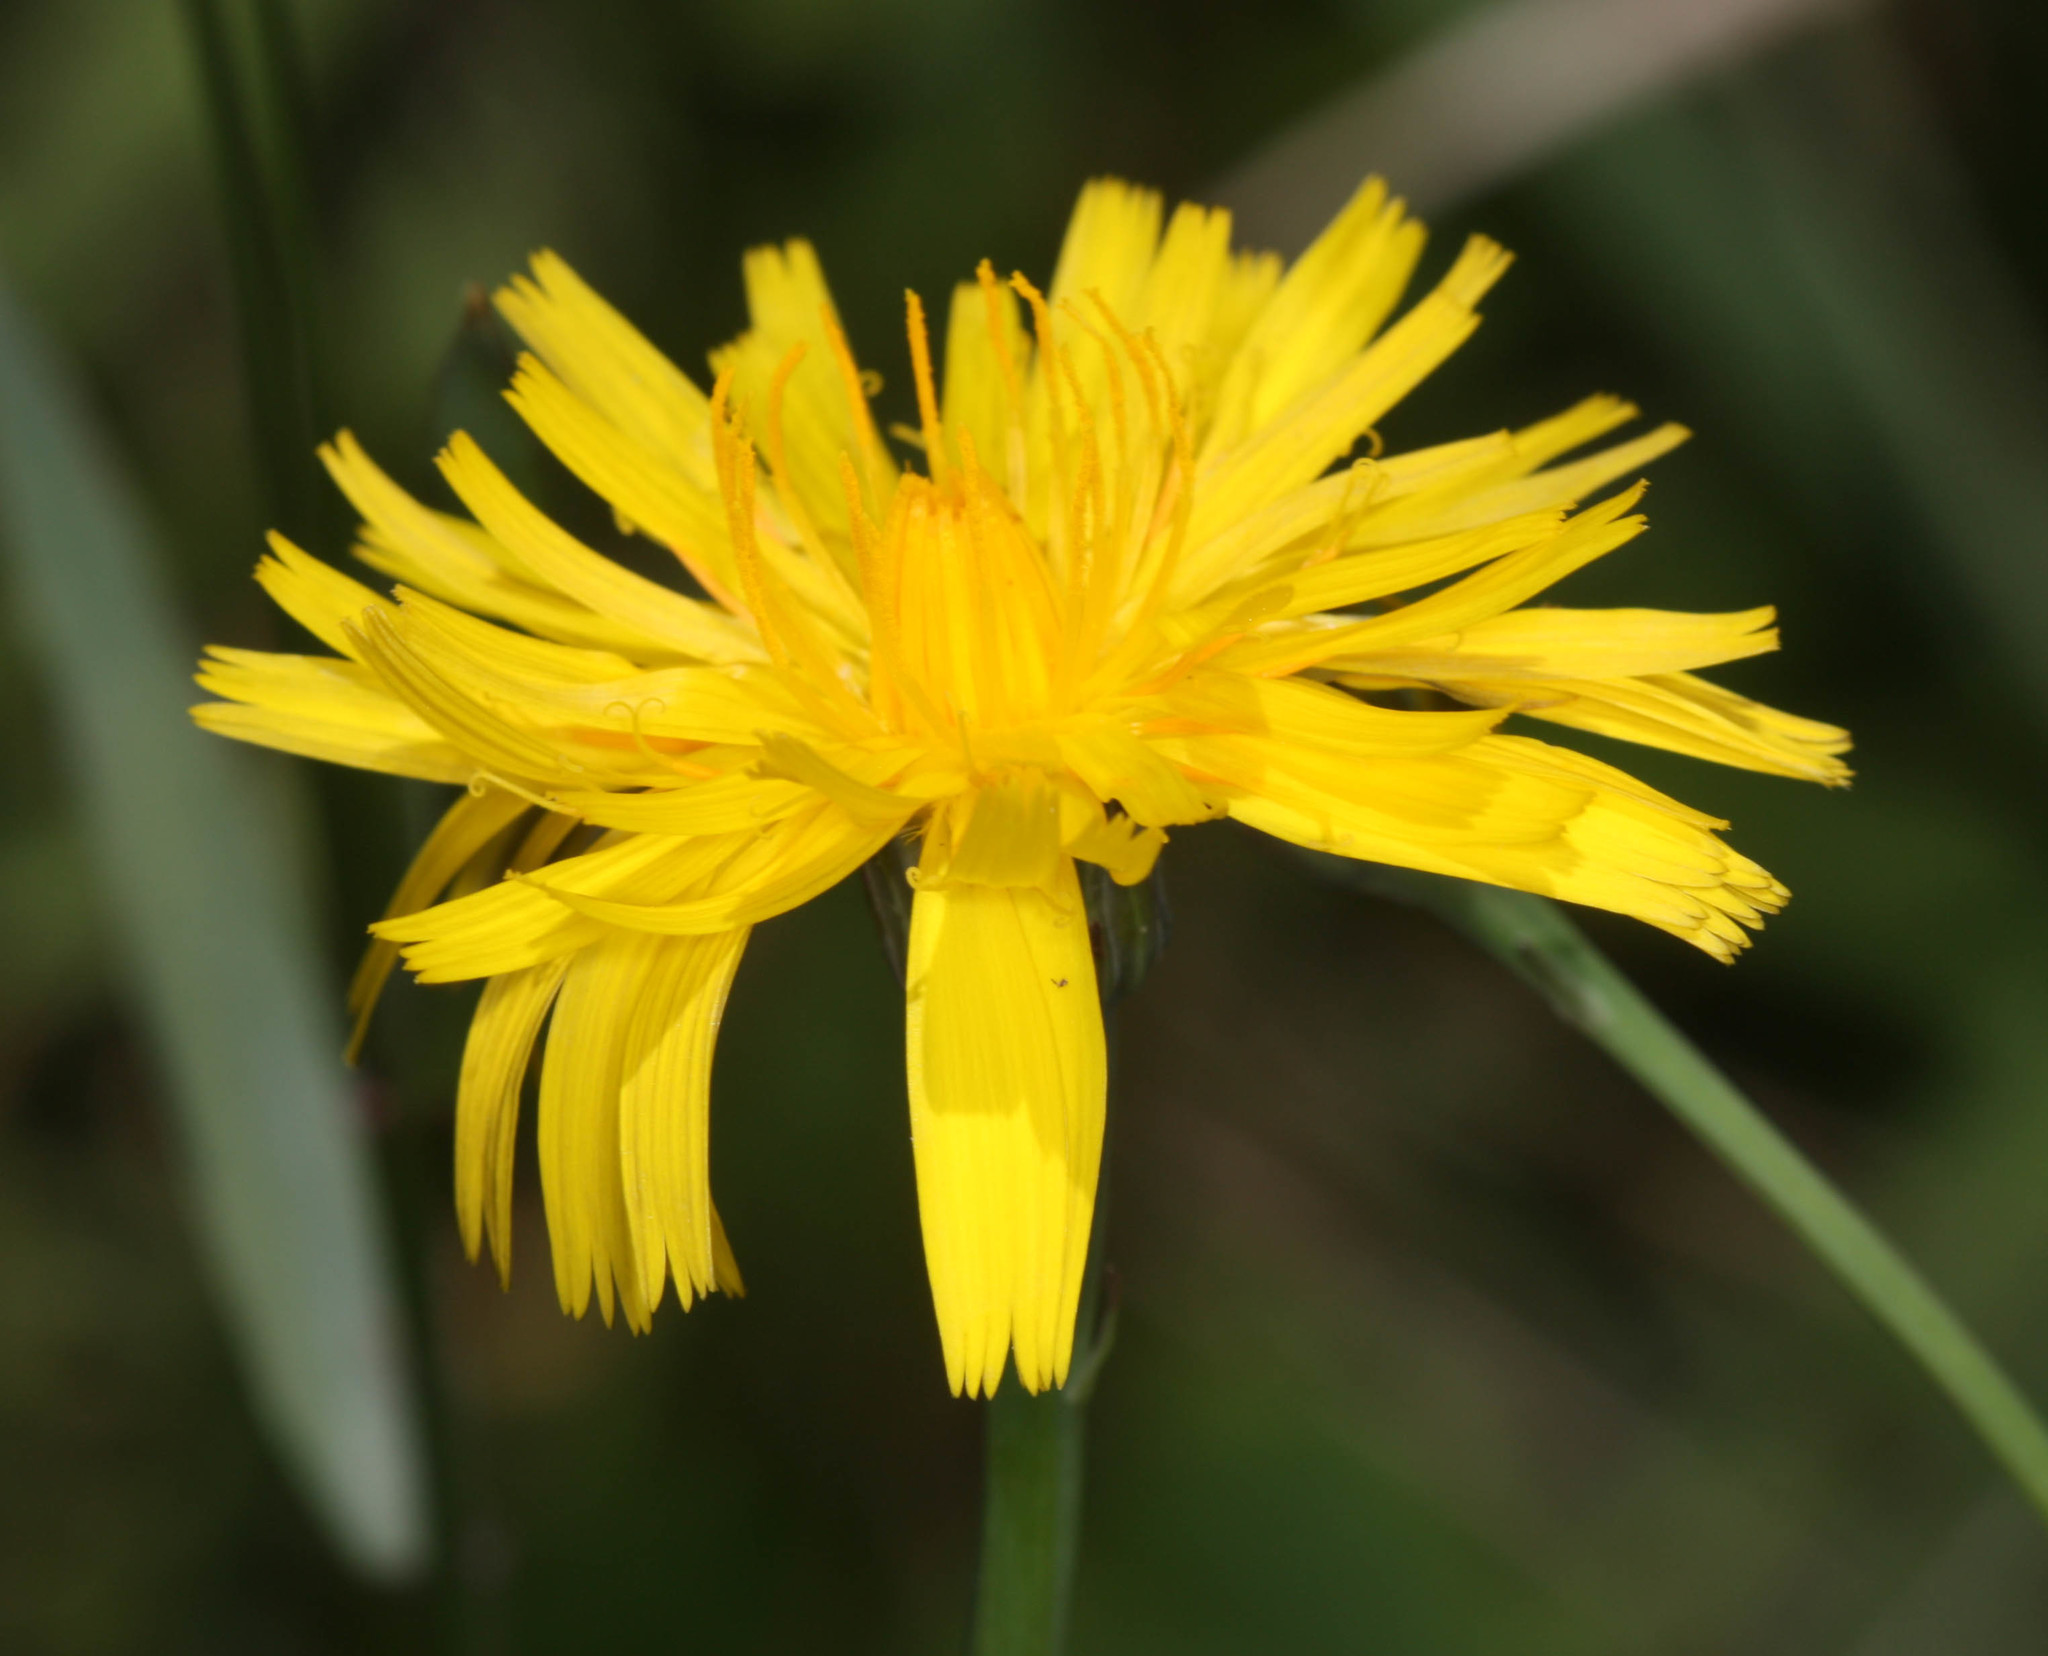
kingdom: Plantae
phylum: Tracheophyta
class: Magnoliopsida
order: Asterales
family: Asteraceae
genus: Hypochaeris
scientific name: Hypochaeris radicata
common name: Flatweed
